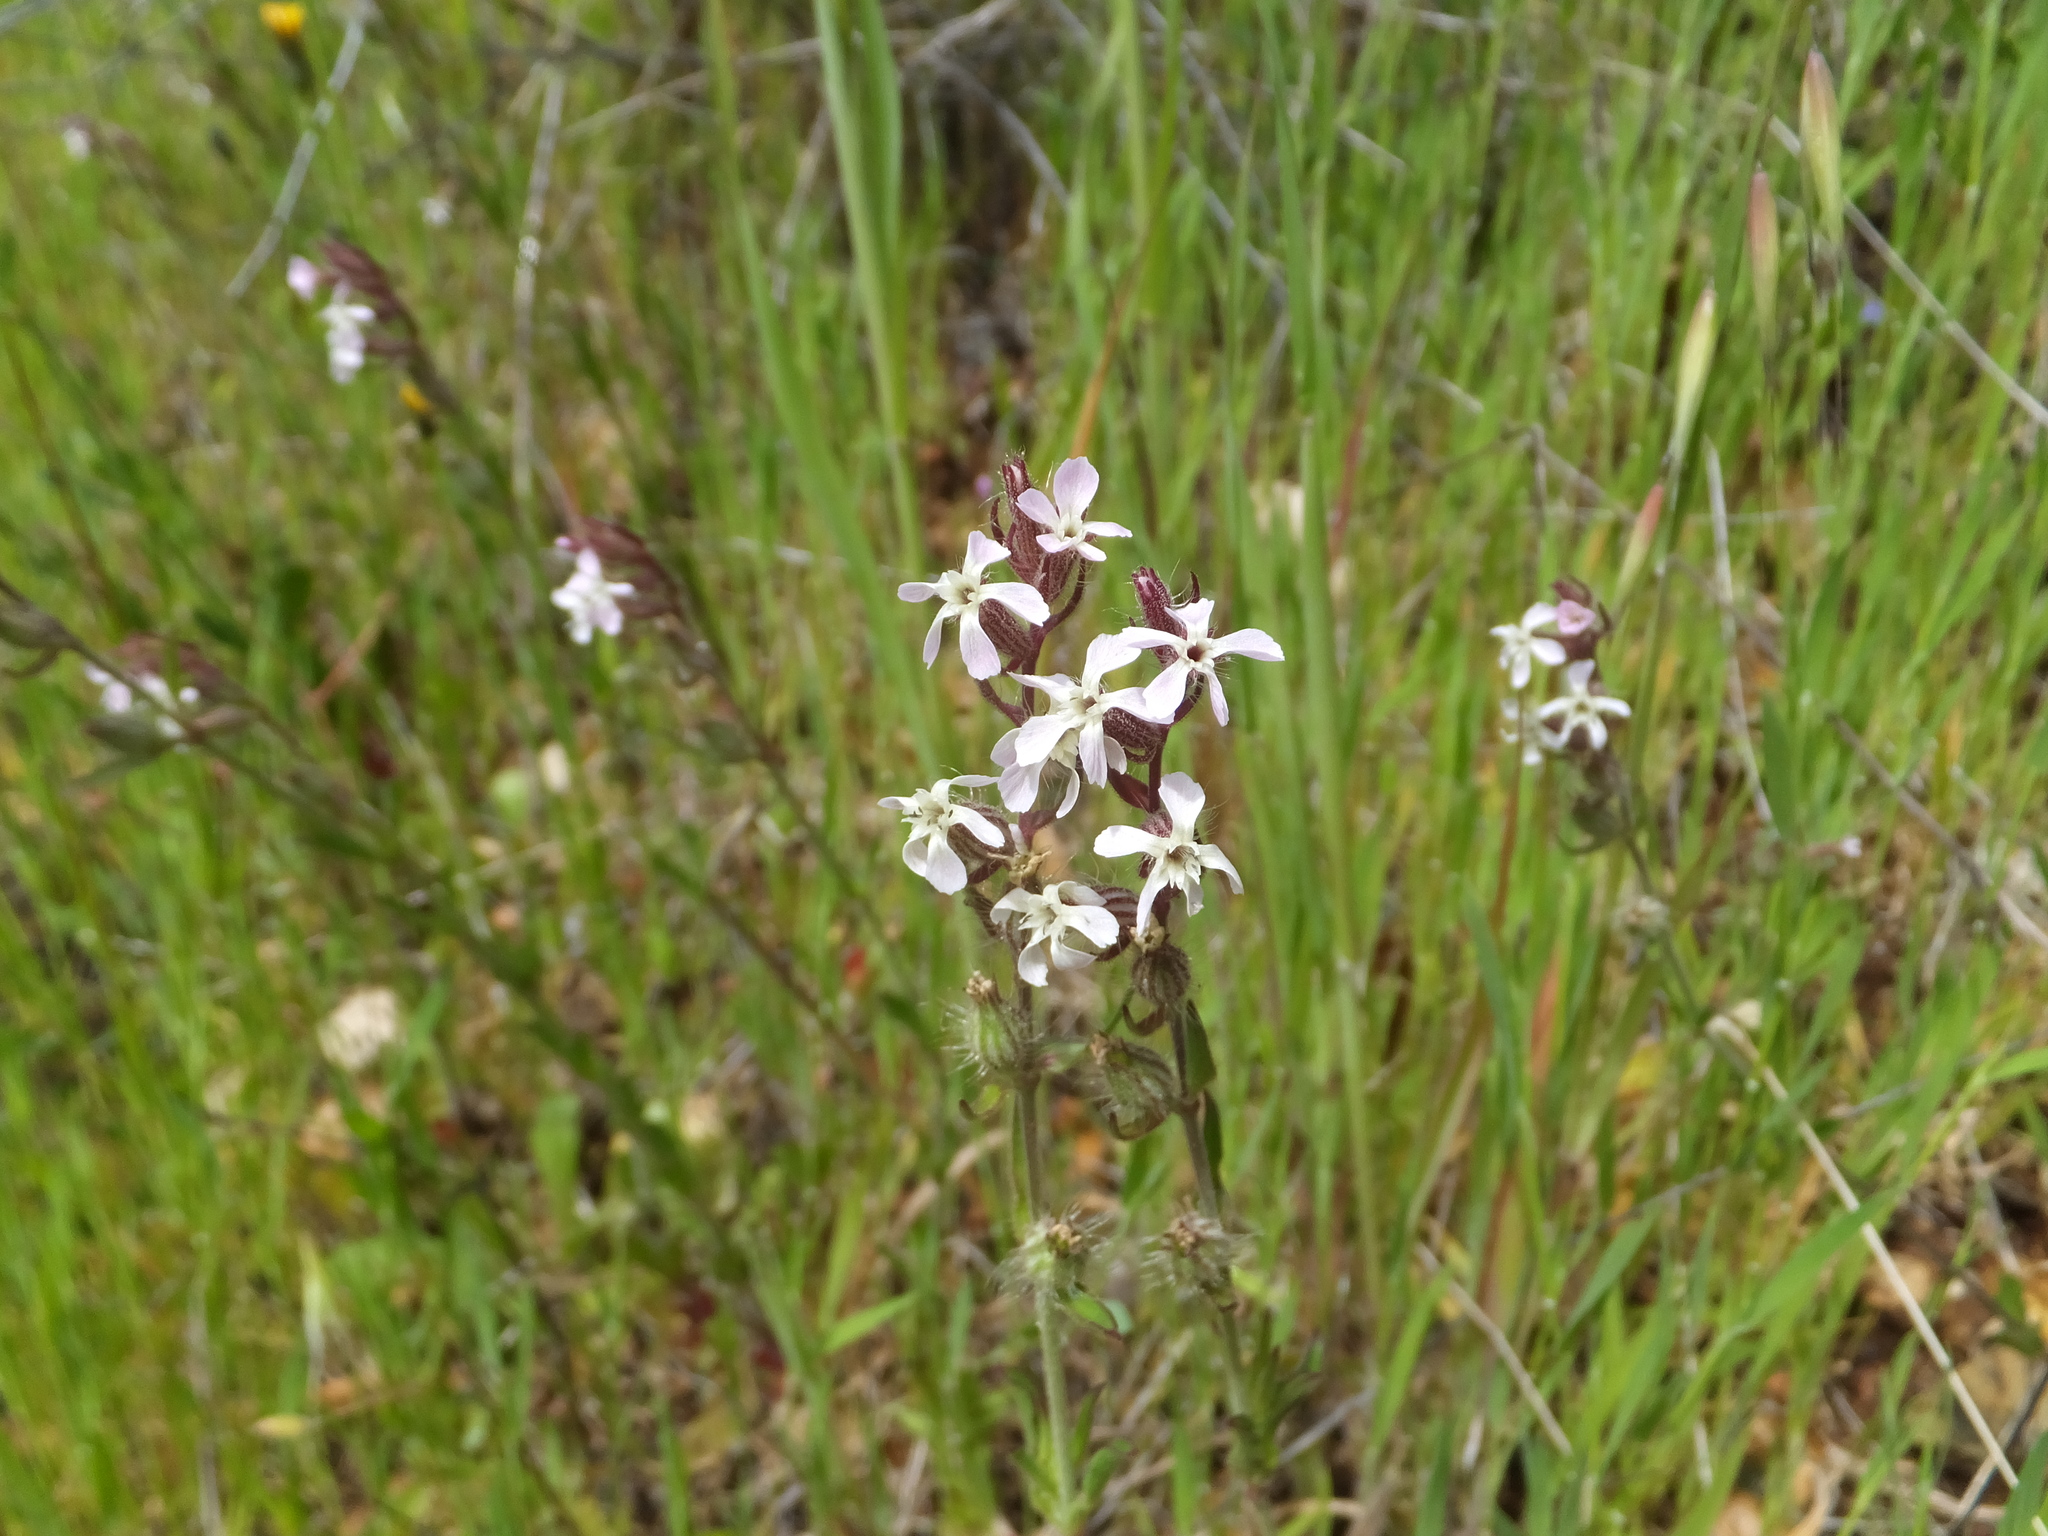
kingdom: Plantae
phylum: Tracheophyta
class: Magnoliopsida
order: Caryophyllales
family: Caryophyllaceae
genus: Silene
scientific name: Silene gallica
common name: Small-flowered catchfly
